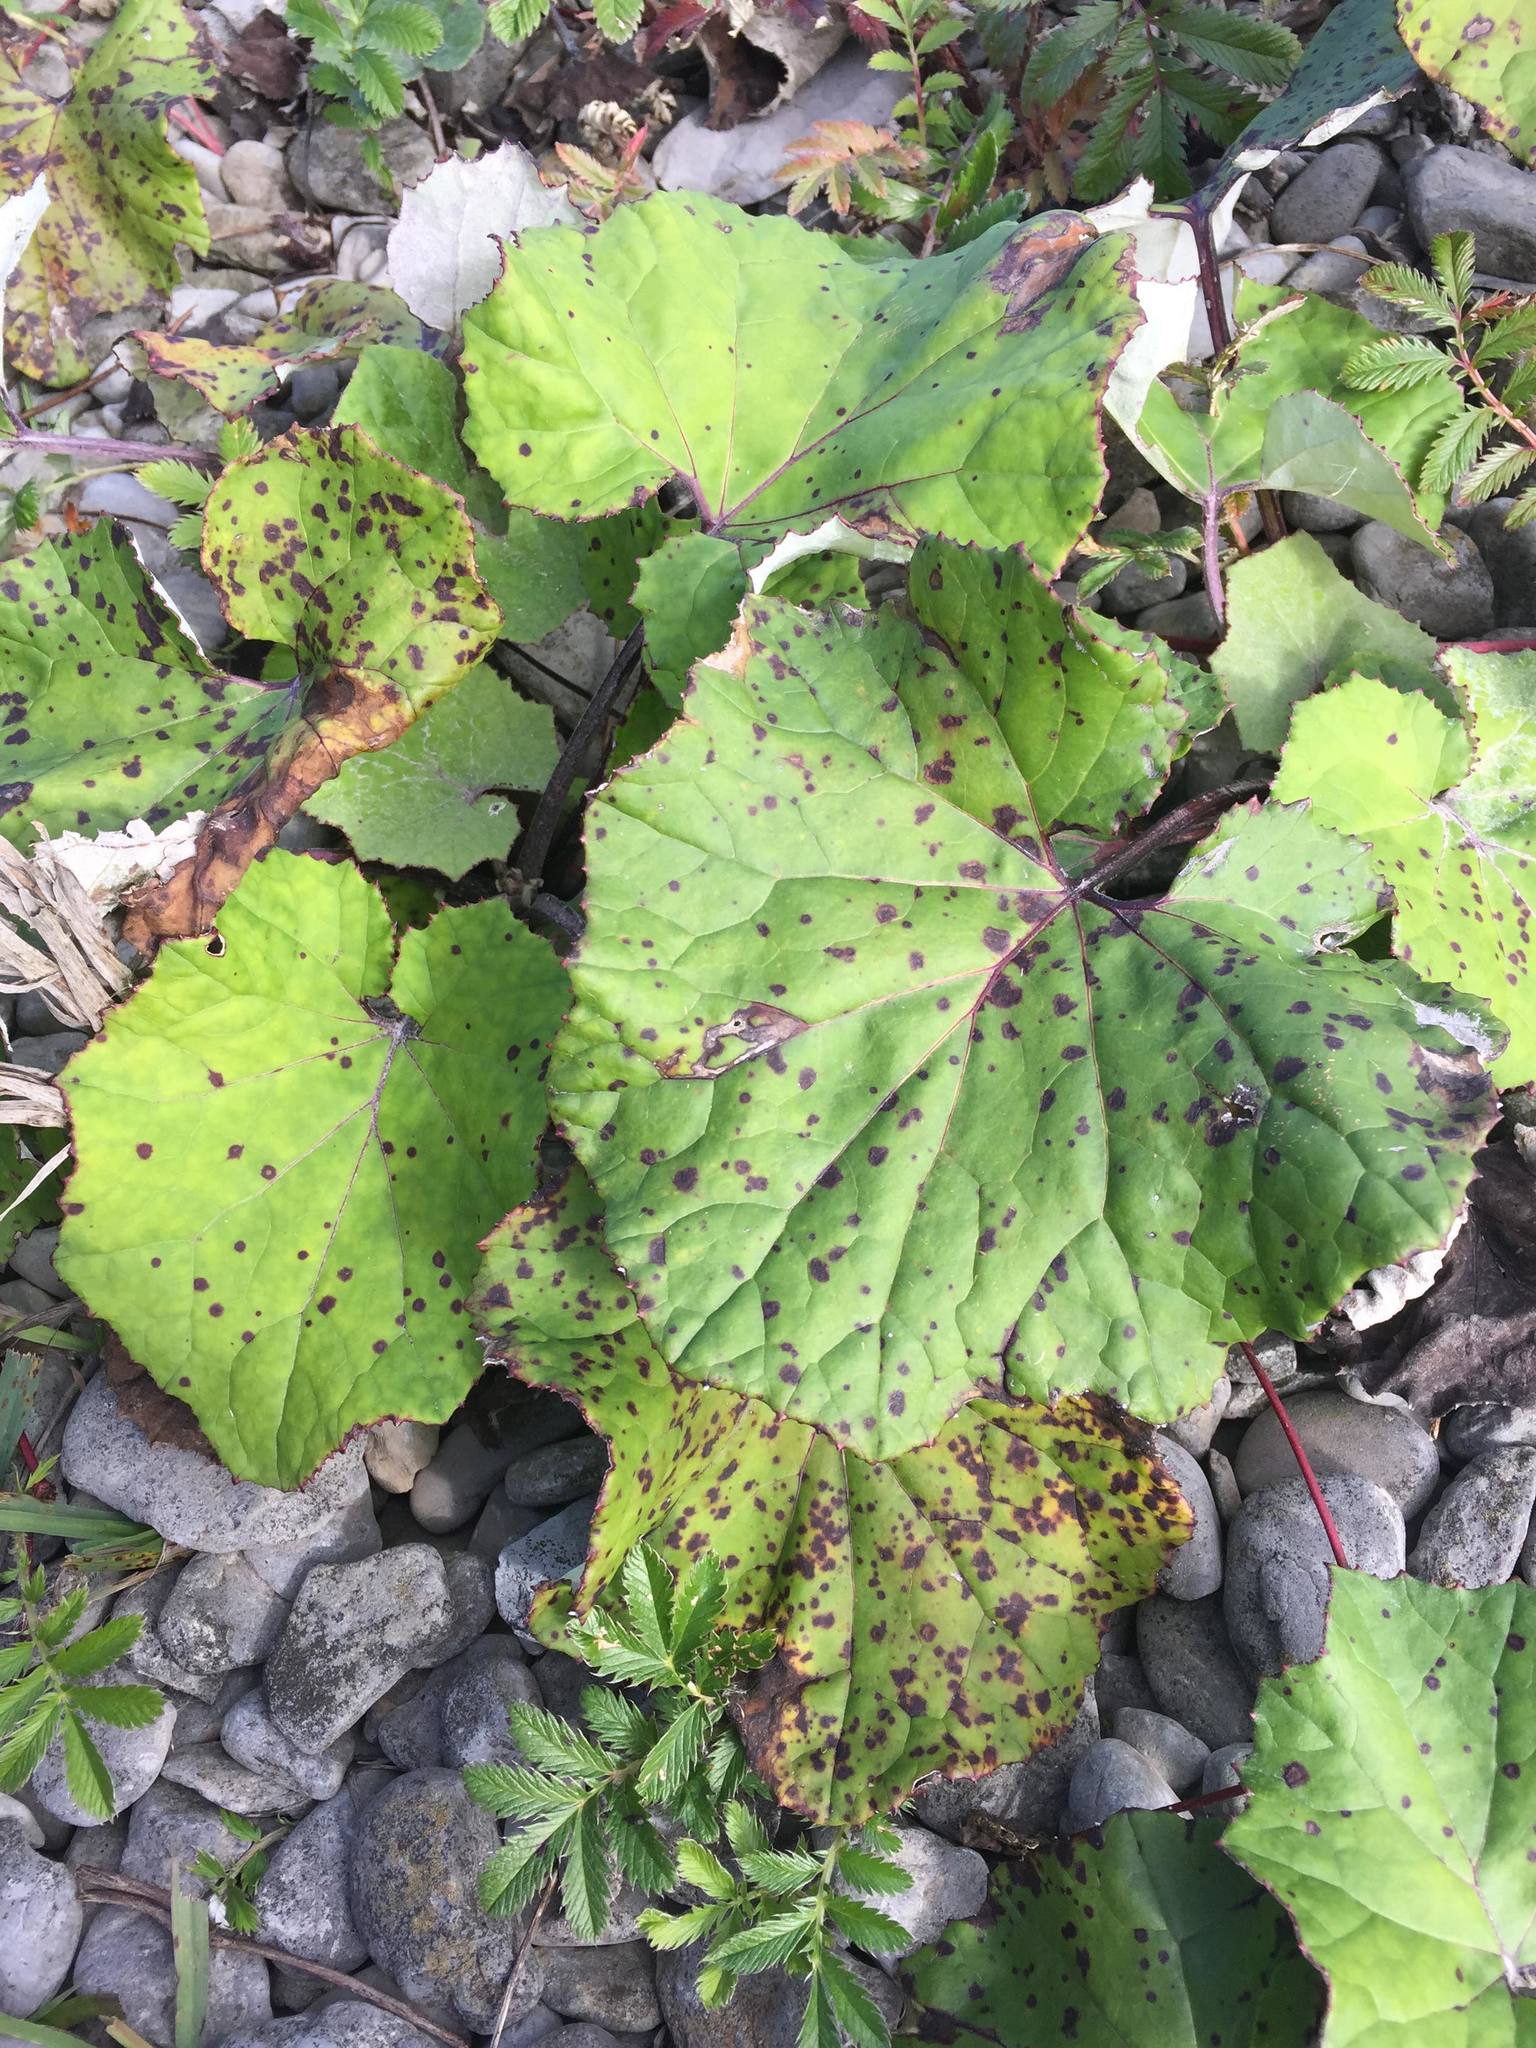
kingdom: Plantae
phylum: Tracheophyta
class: Magnoliopsida
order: Asterales
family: Asteraceae
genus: Tussilago
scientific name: Tussilago farfara
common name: Coltsfoot
